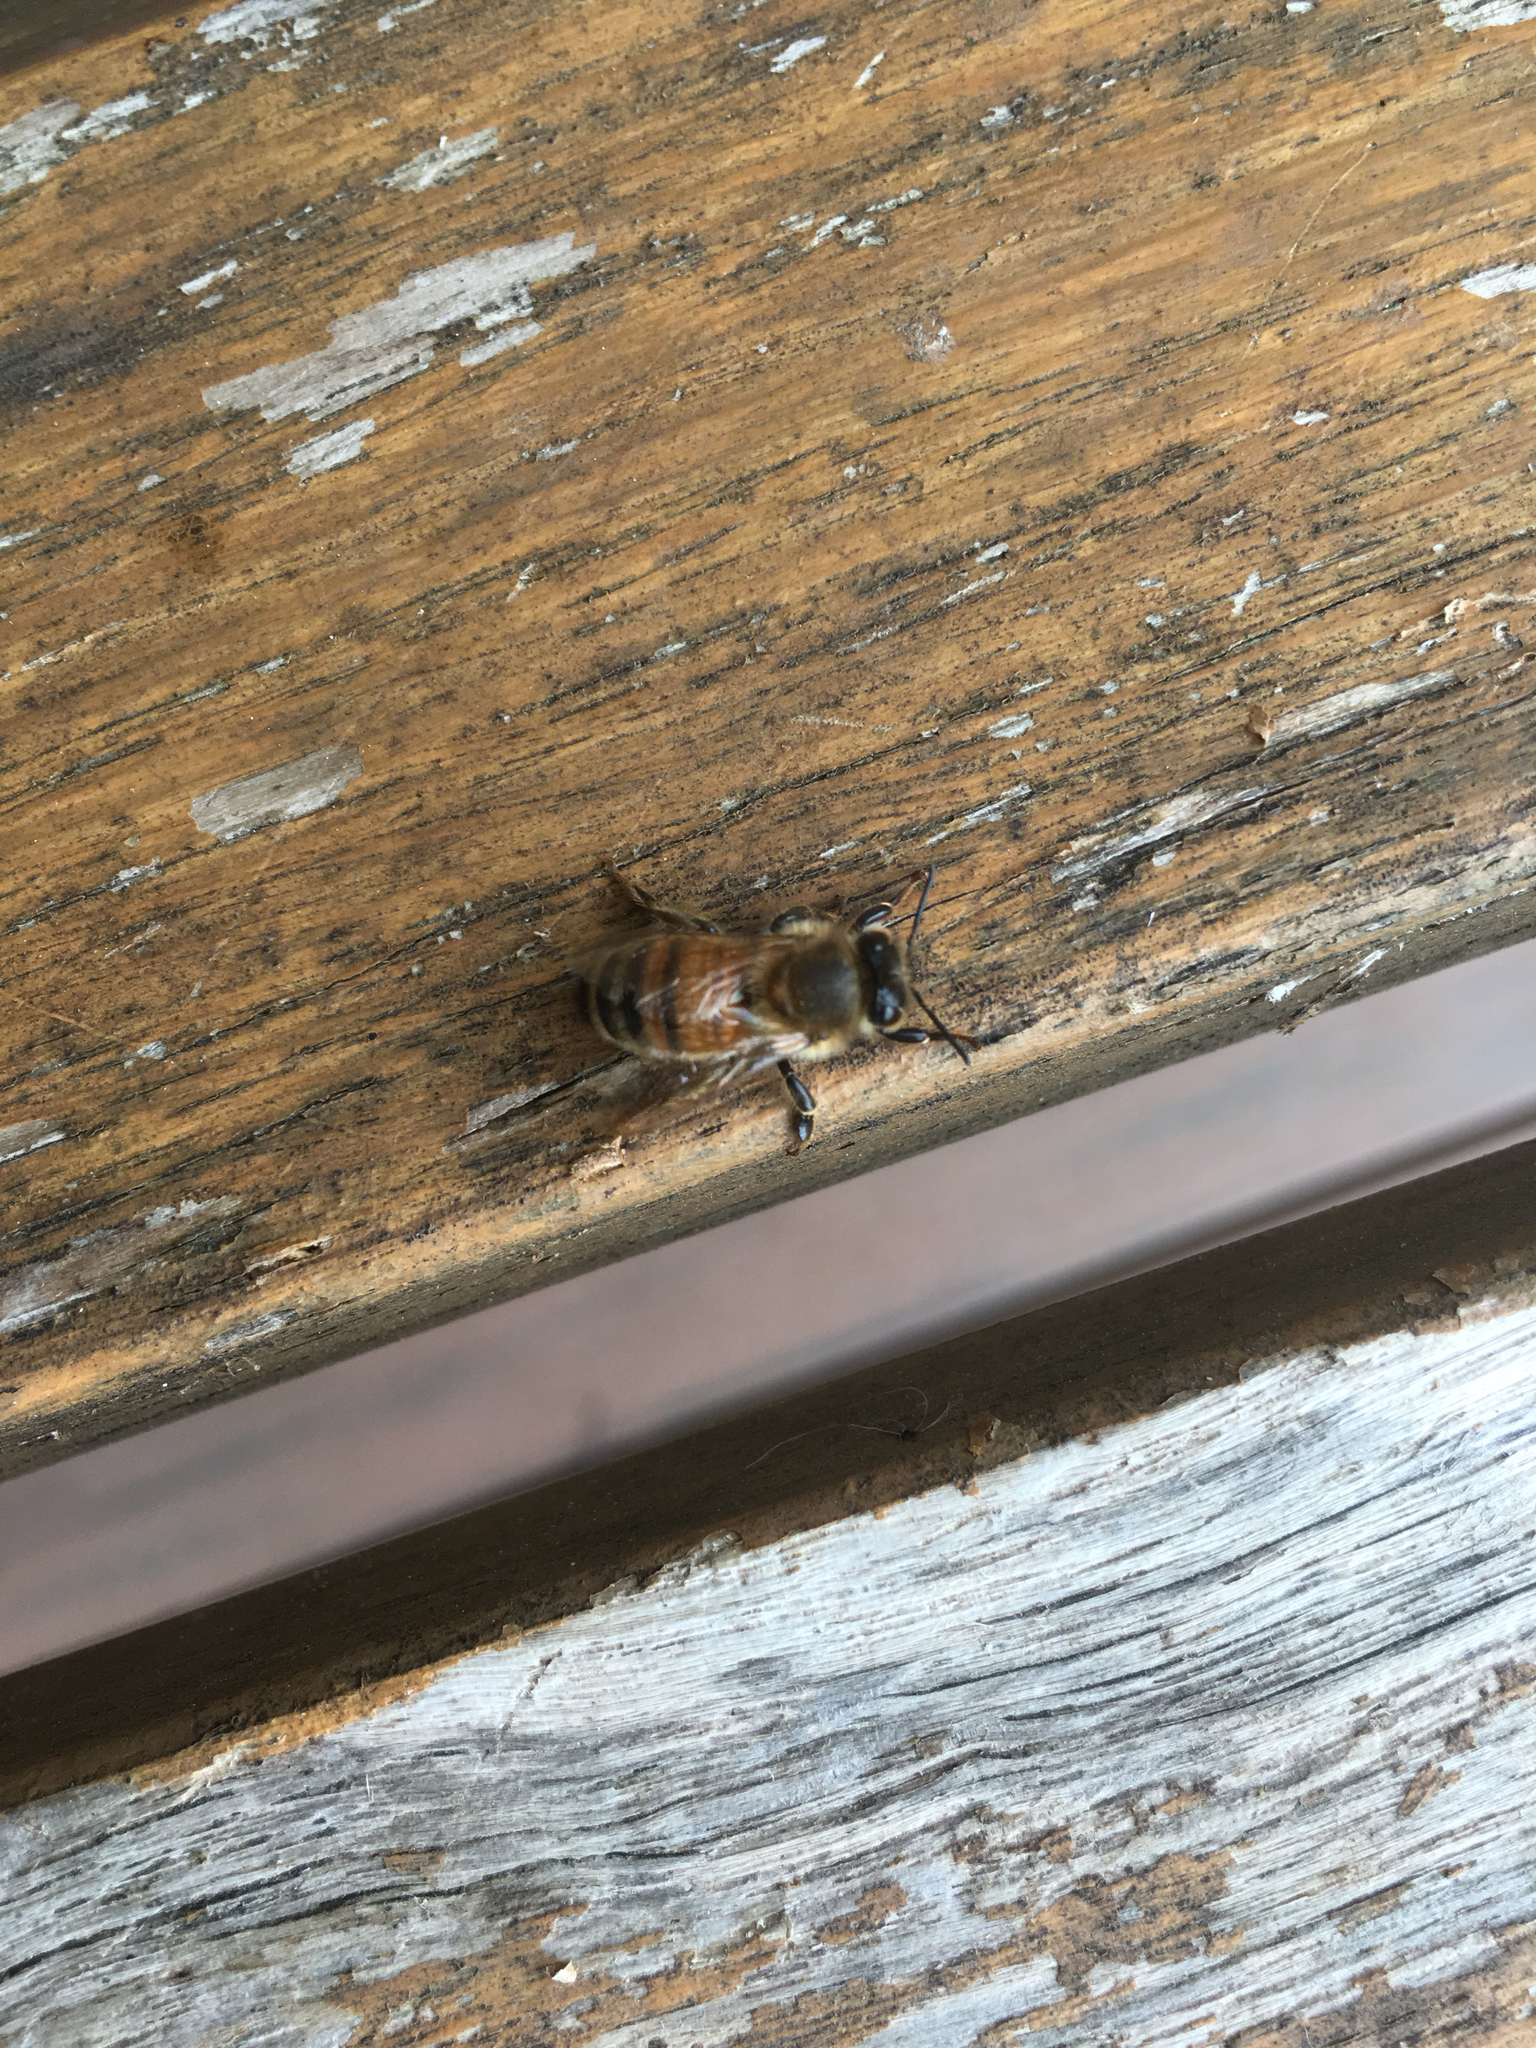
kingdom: Animalia
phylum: Arthropoda
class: Insecta
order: Hymenoptera
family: Apidae
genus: Apis
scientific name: Apis mellifera
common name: Honey bee
